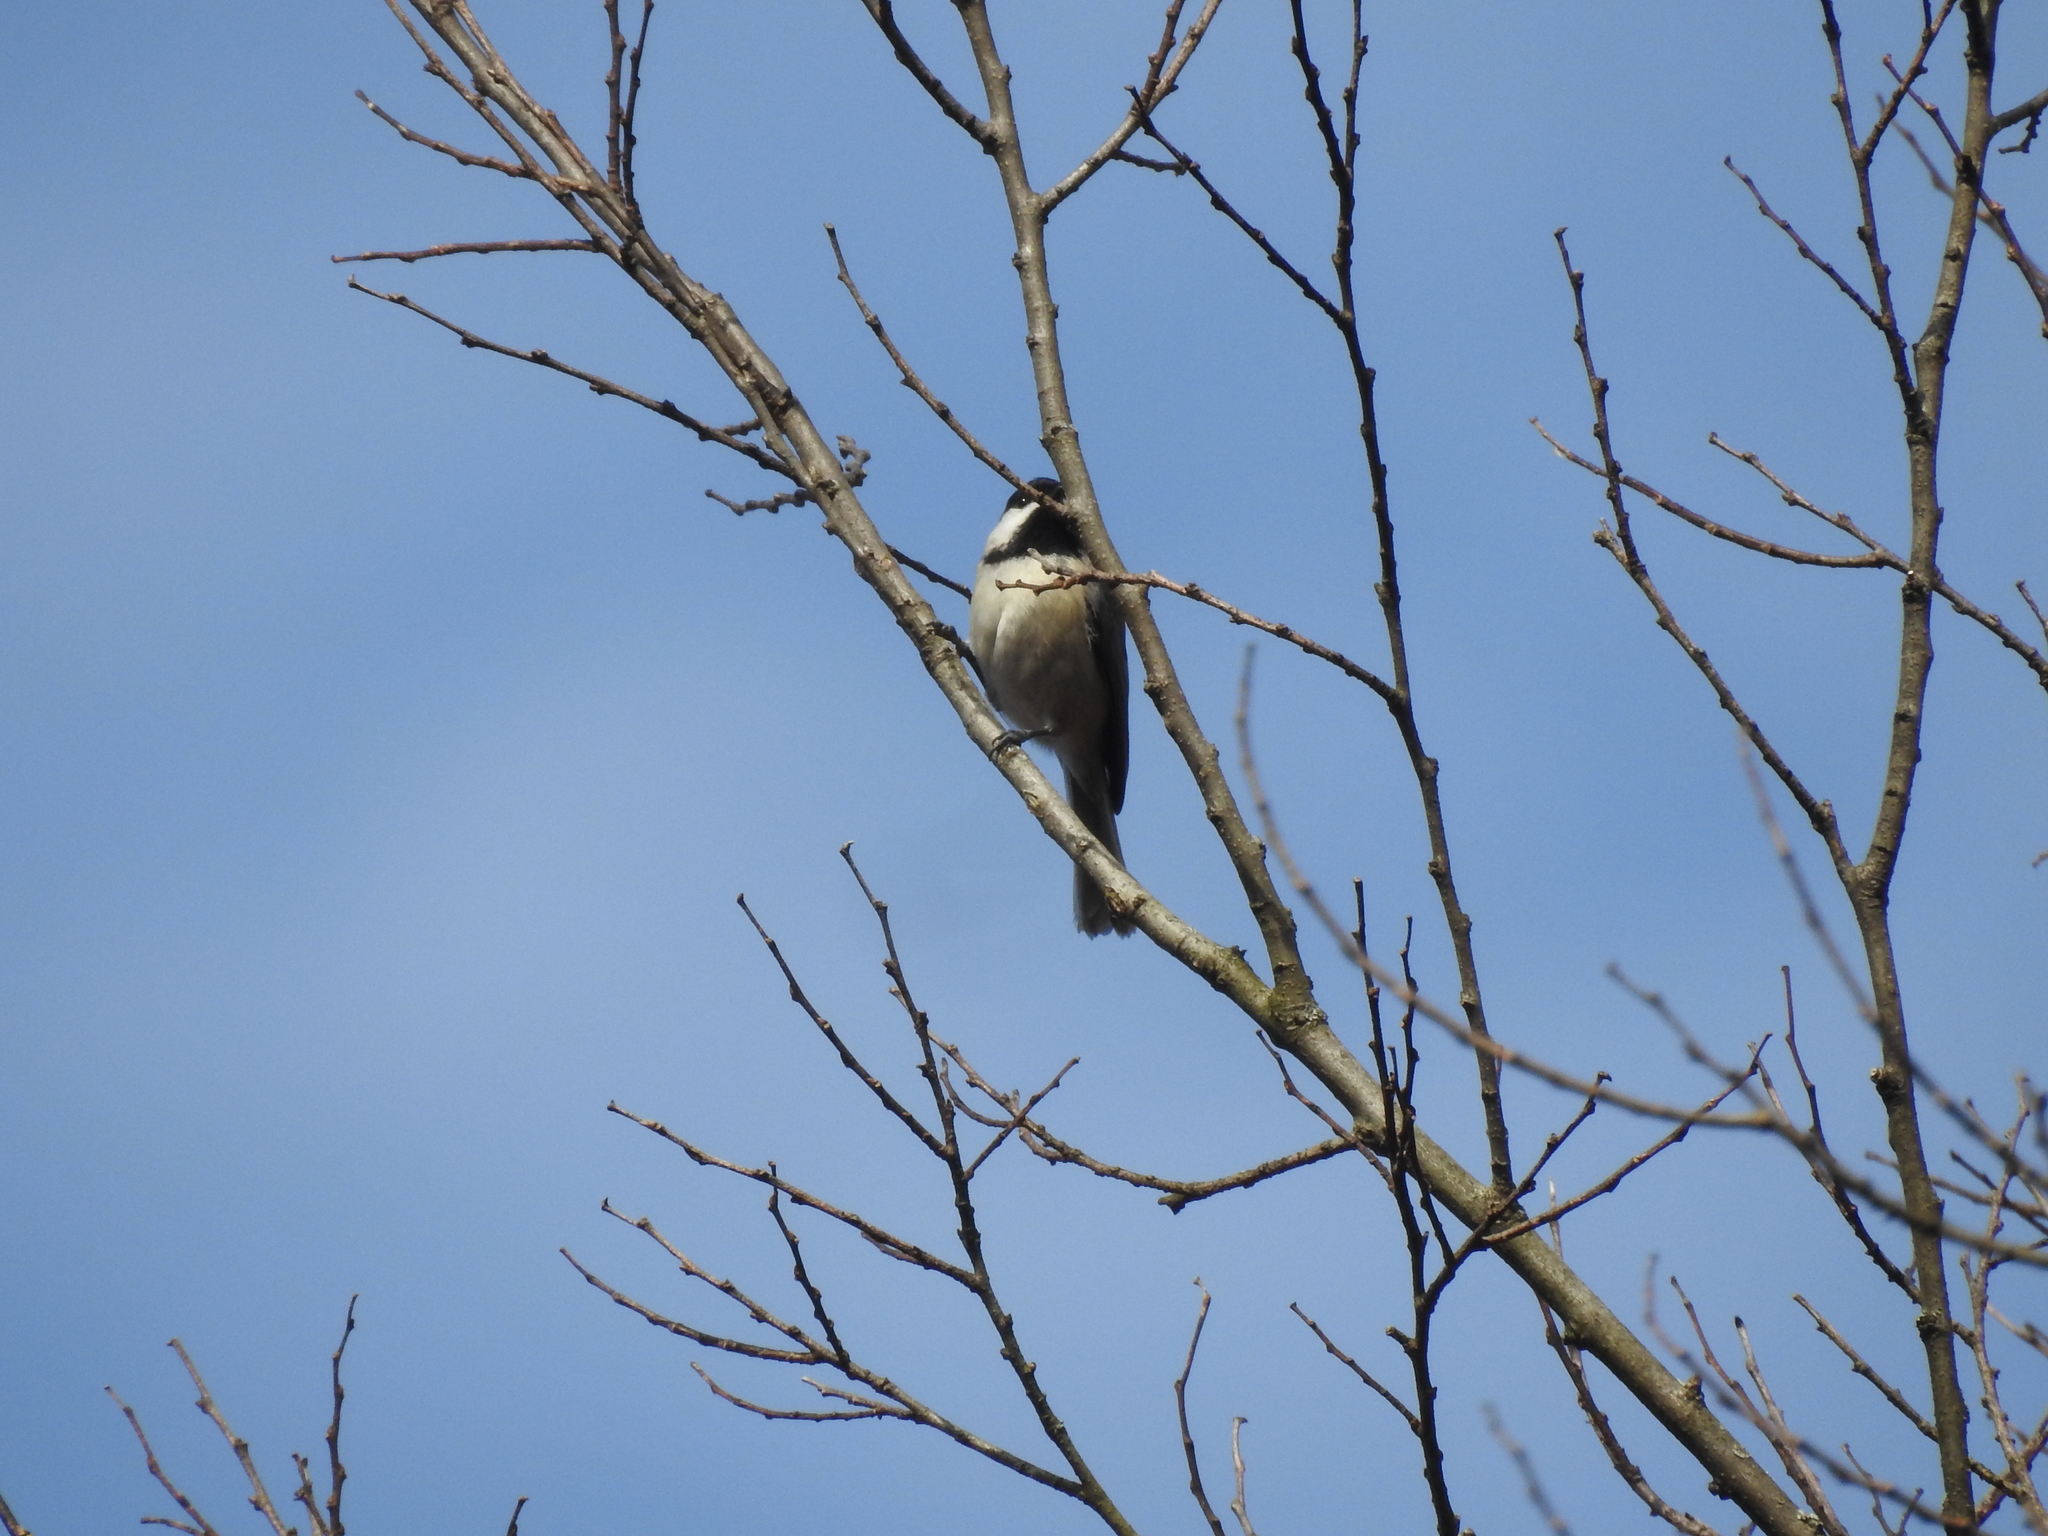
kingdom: Animalia
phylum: Chordata
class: Aves
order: Passeriformes
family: Paridae
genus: Poecile
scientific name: Poecile carolinensis
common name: Carolina chickadee
